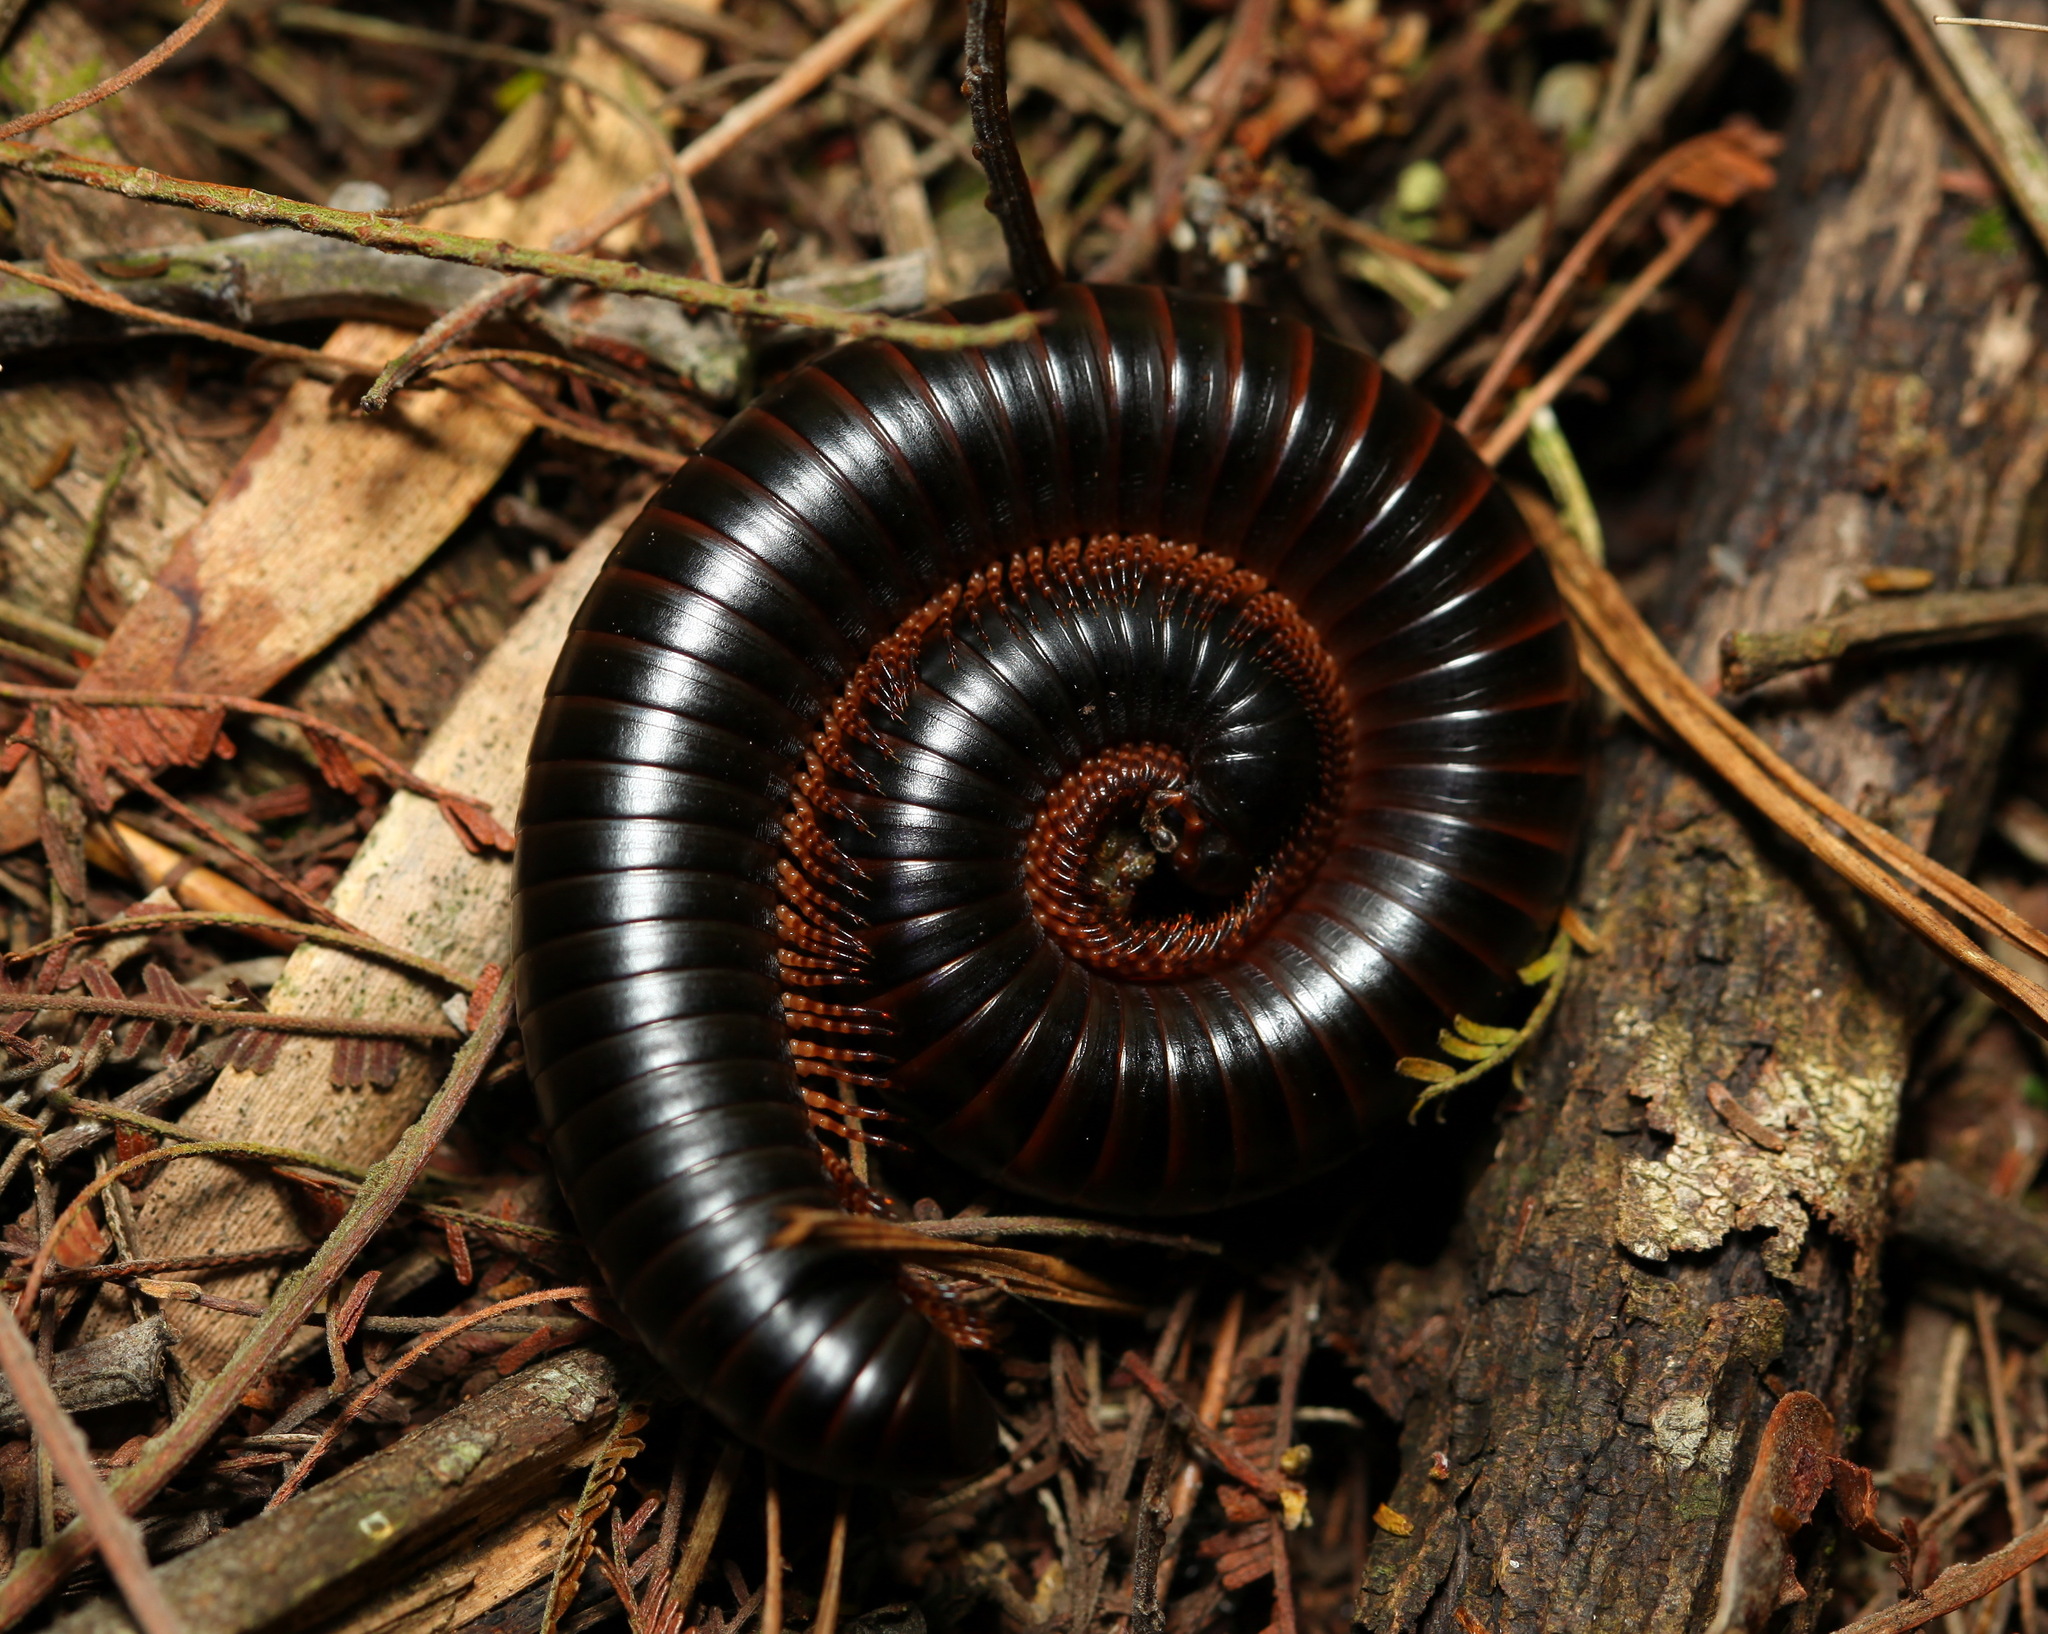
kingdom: Animalia
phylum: Arthropoda
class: Diplopoda
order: Spirostreptida
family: Spirostreptidae
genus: Doratogonus
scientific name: Doratogonus annulipes
